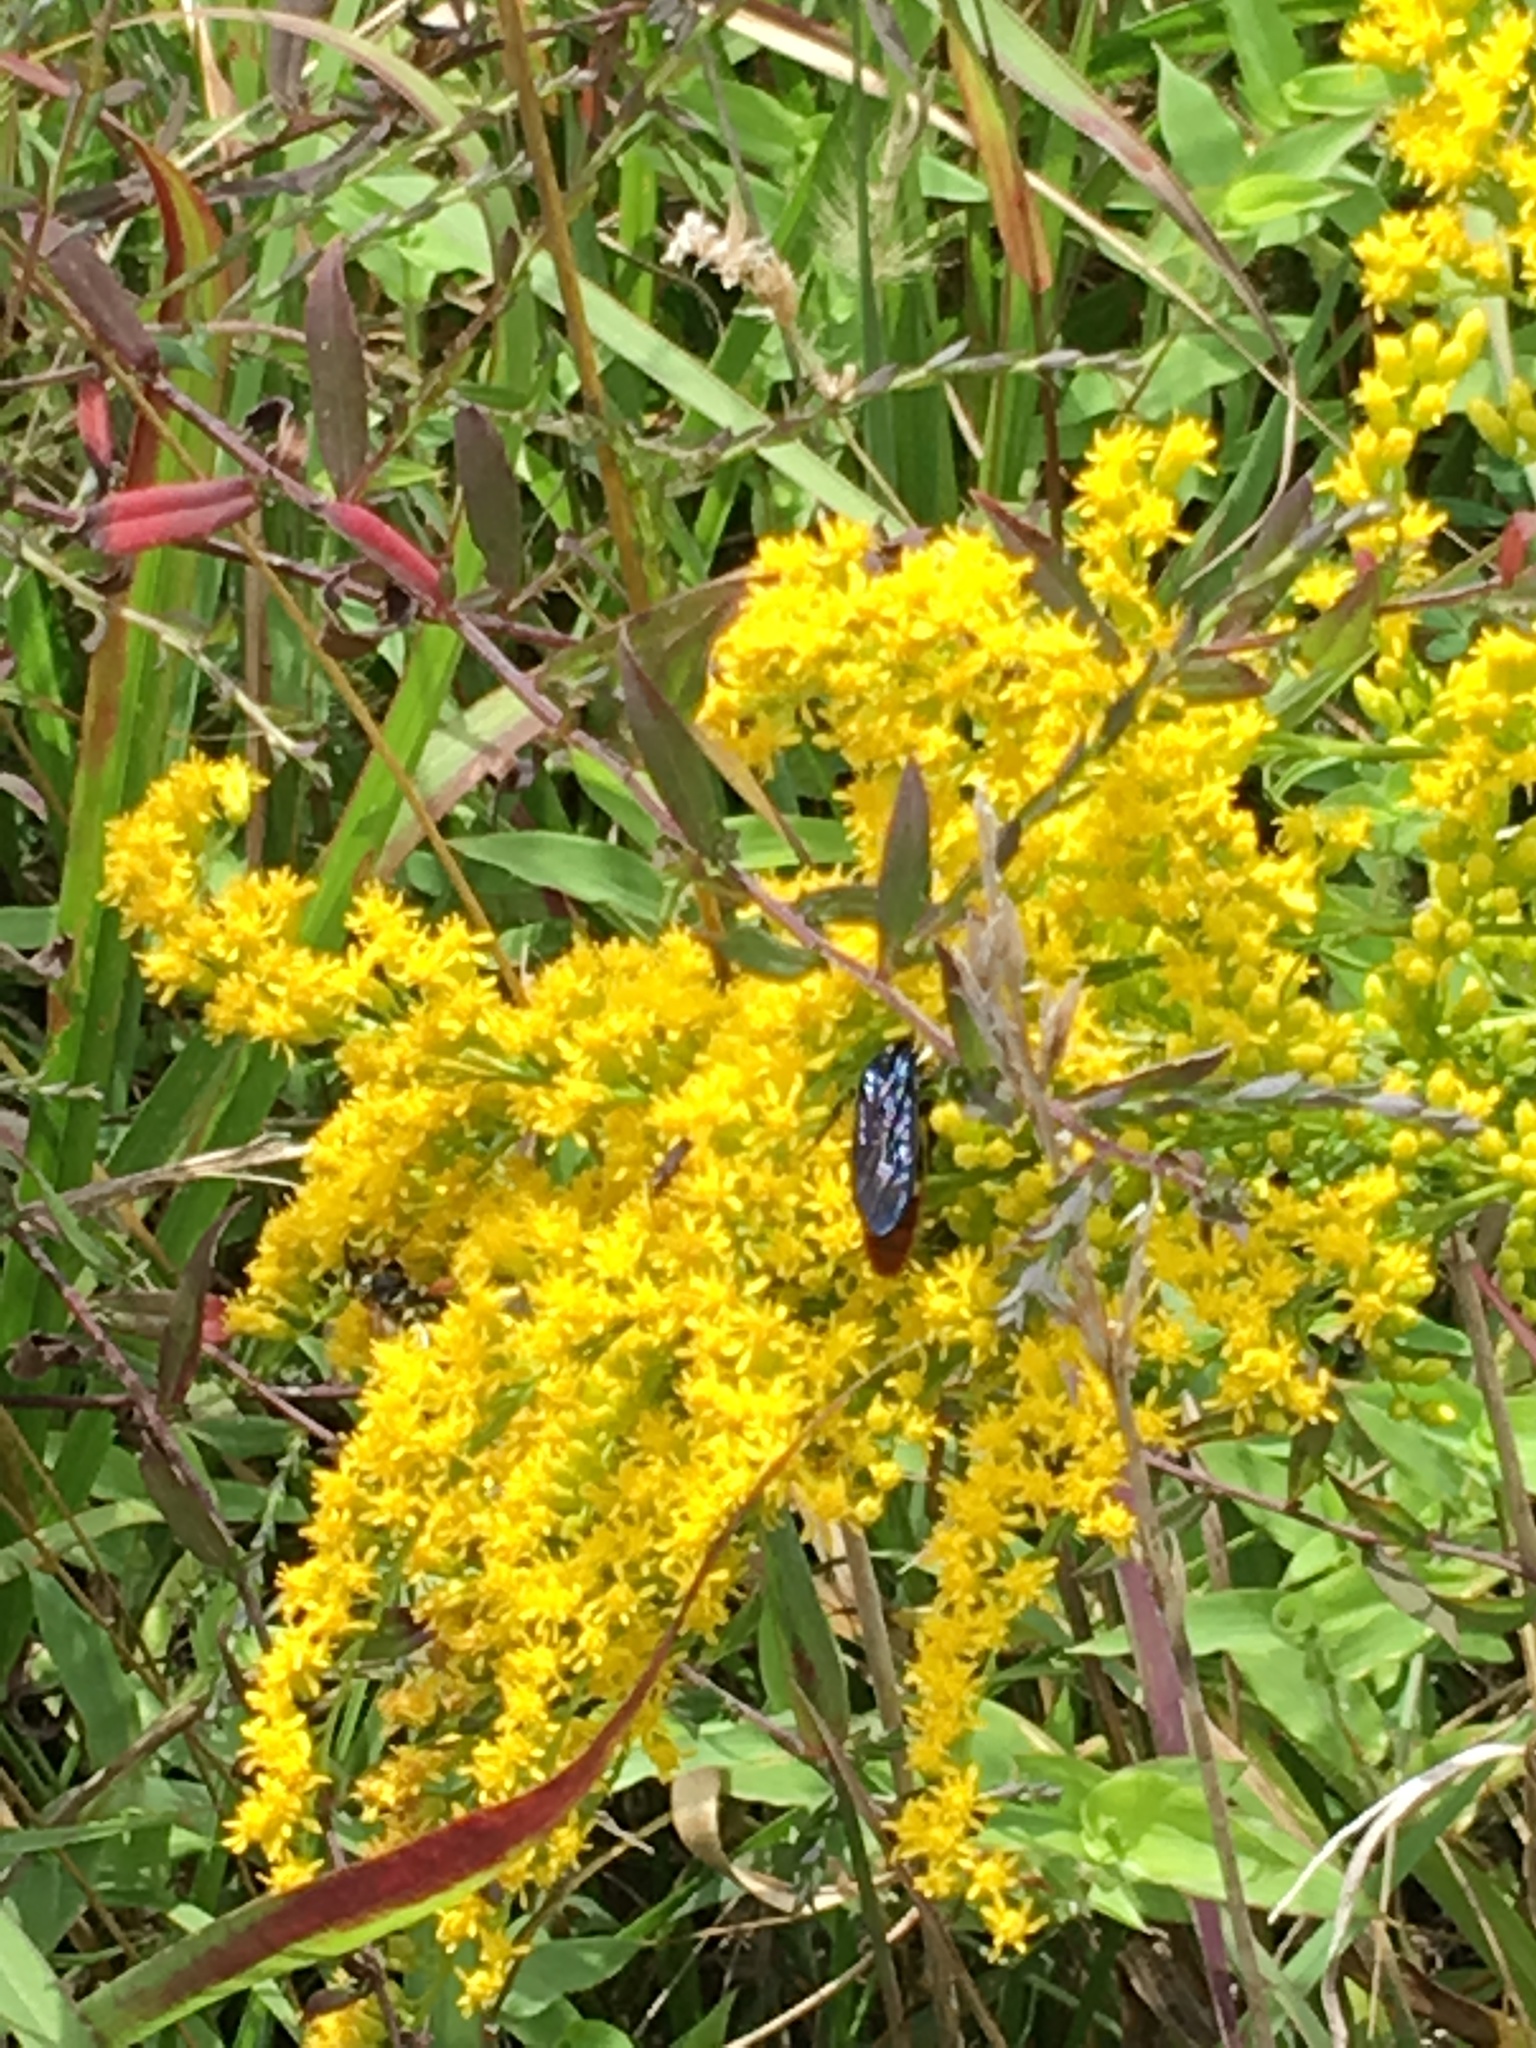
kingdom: Plantae
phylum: Tracheophyta
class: Magnoliopsida
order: Asterales
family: Asteraceae
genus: Solidago
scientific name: Solidago juncea
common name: Early goldenrod
